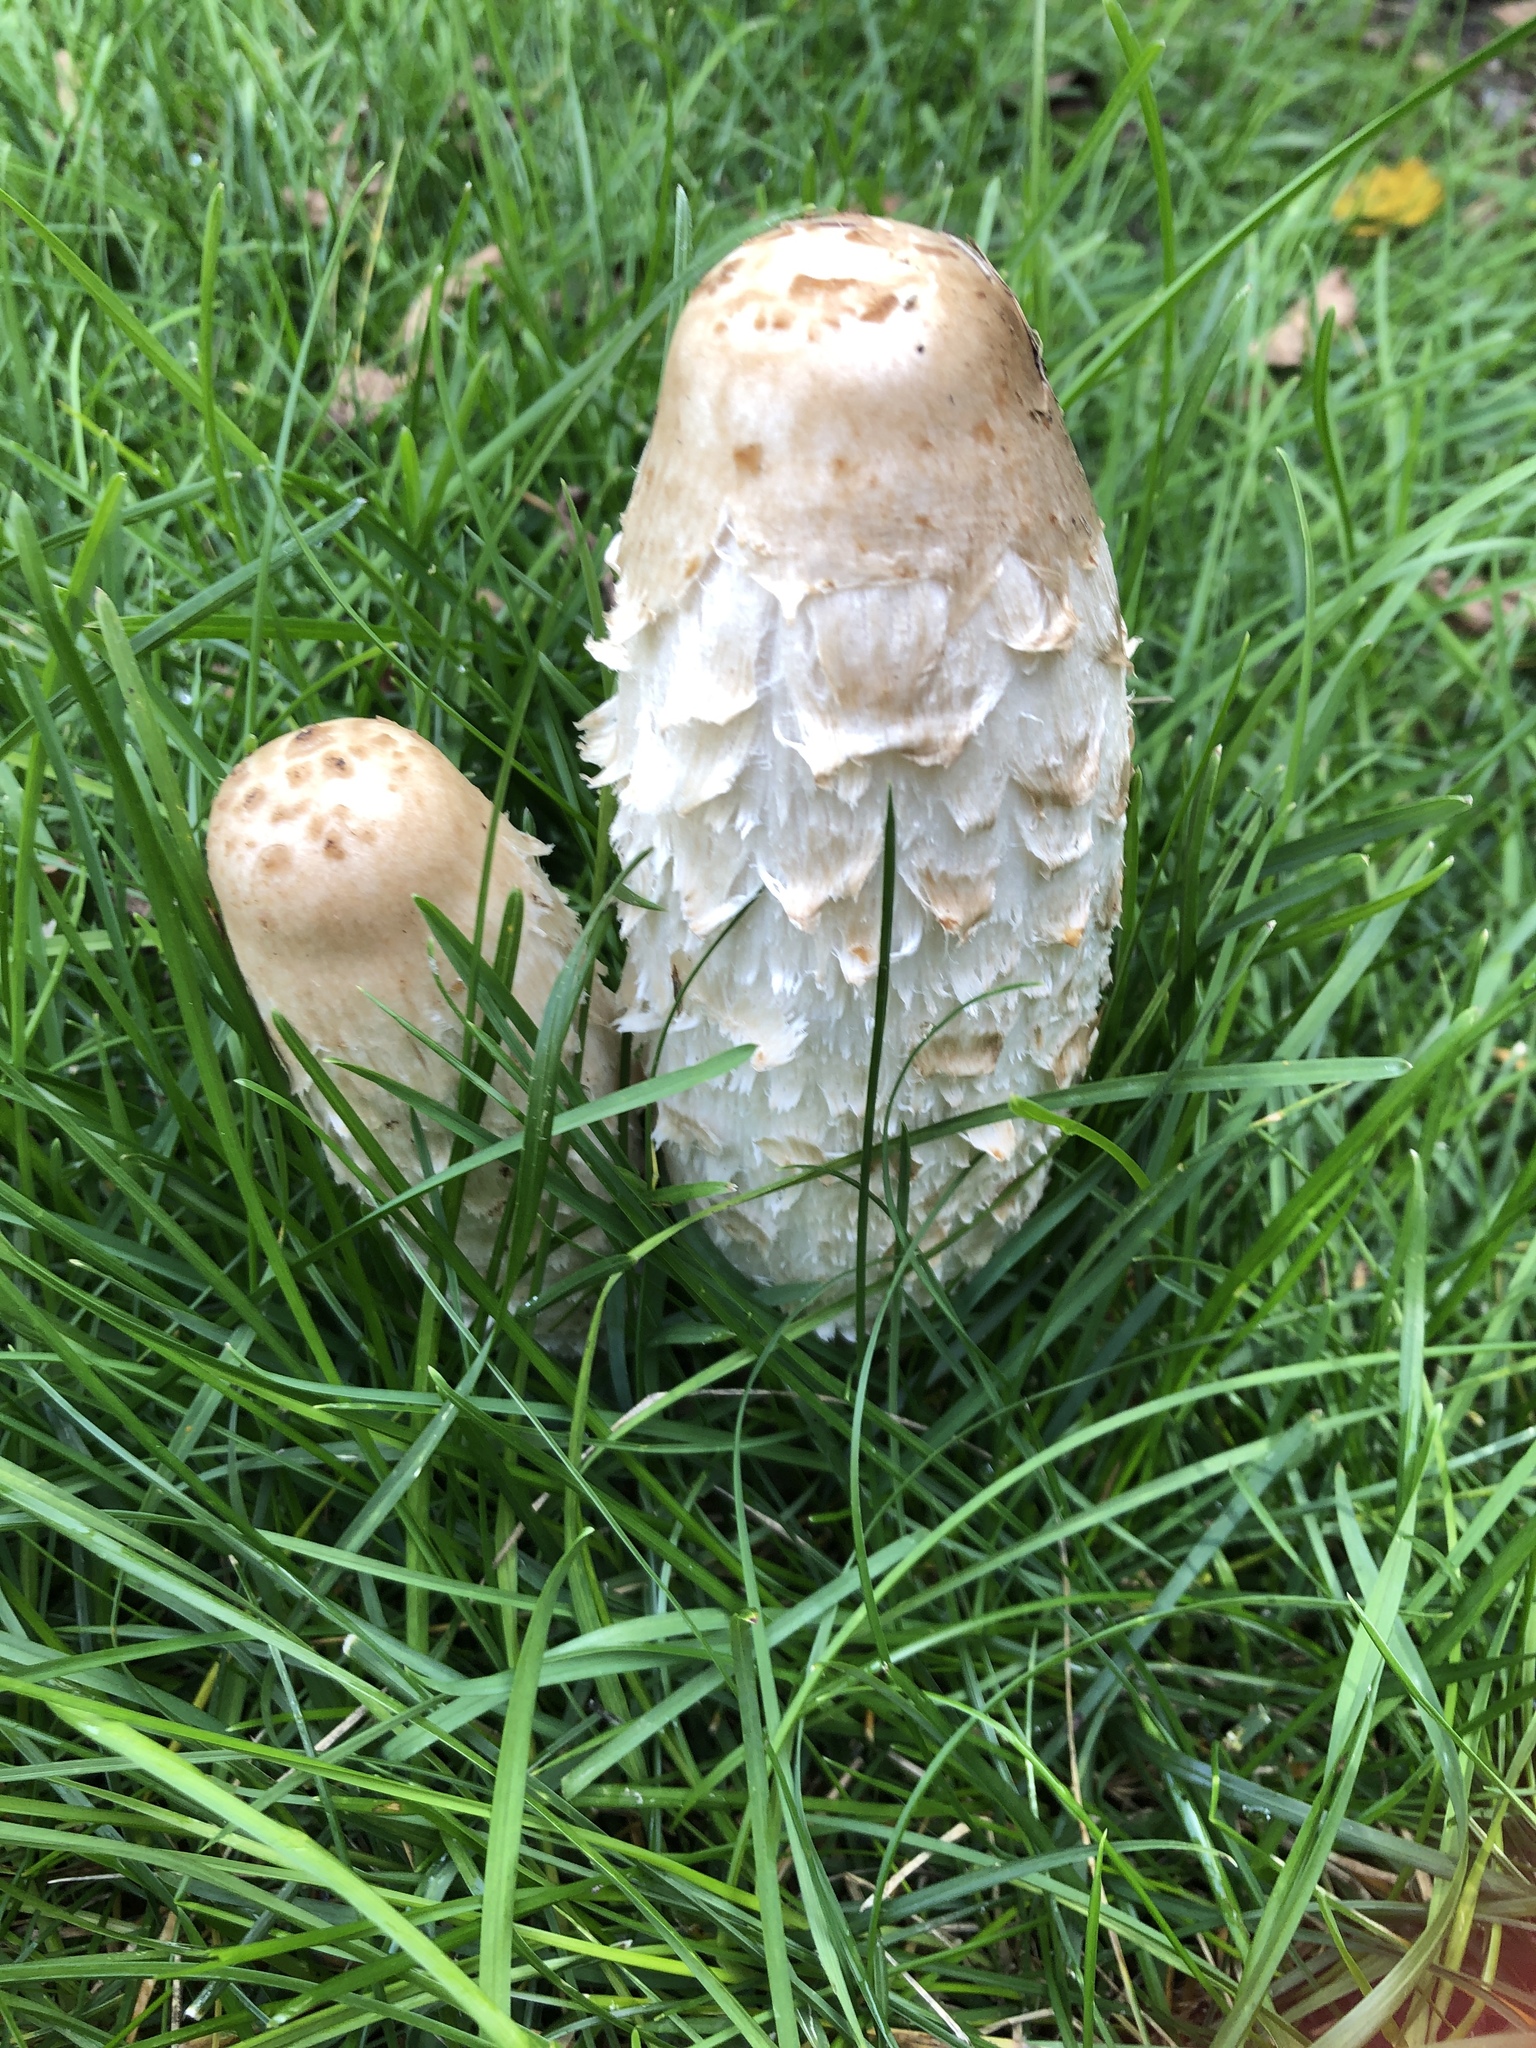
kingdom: Fungi
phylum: Basidiomycota
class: Agaricomycetes
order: Agaricales
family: Agaricaceae
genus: Coprinus
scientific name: Coprinus comatus
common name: Lawyer's wig
